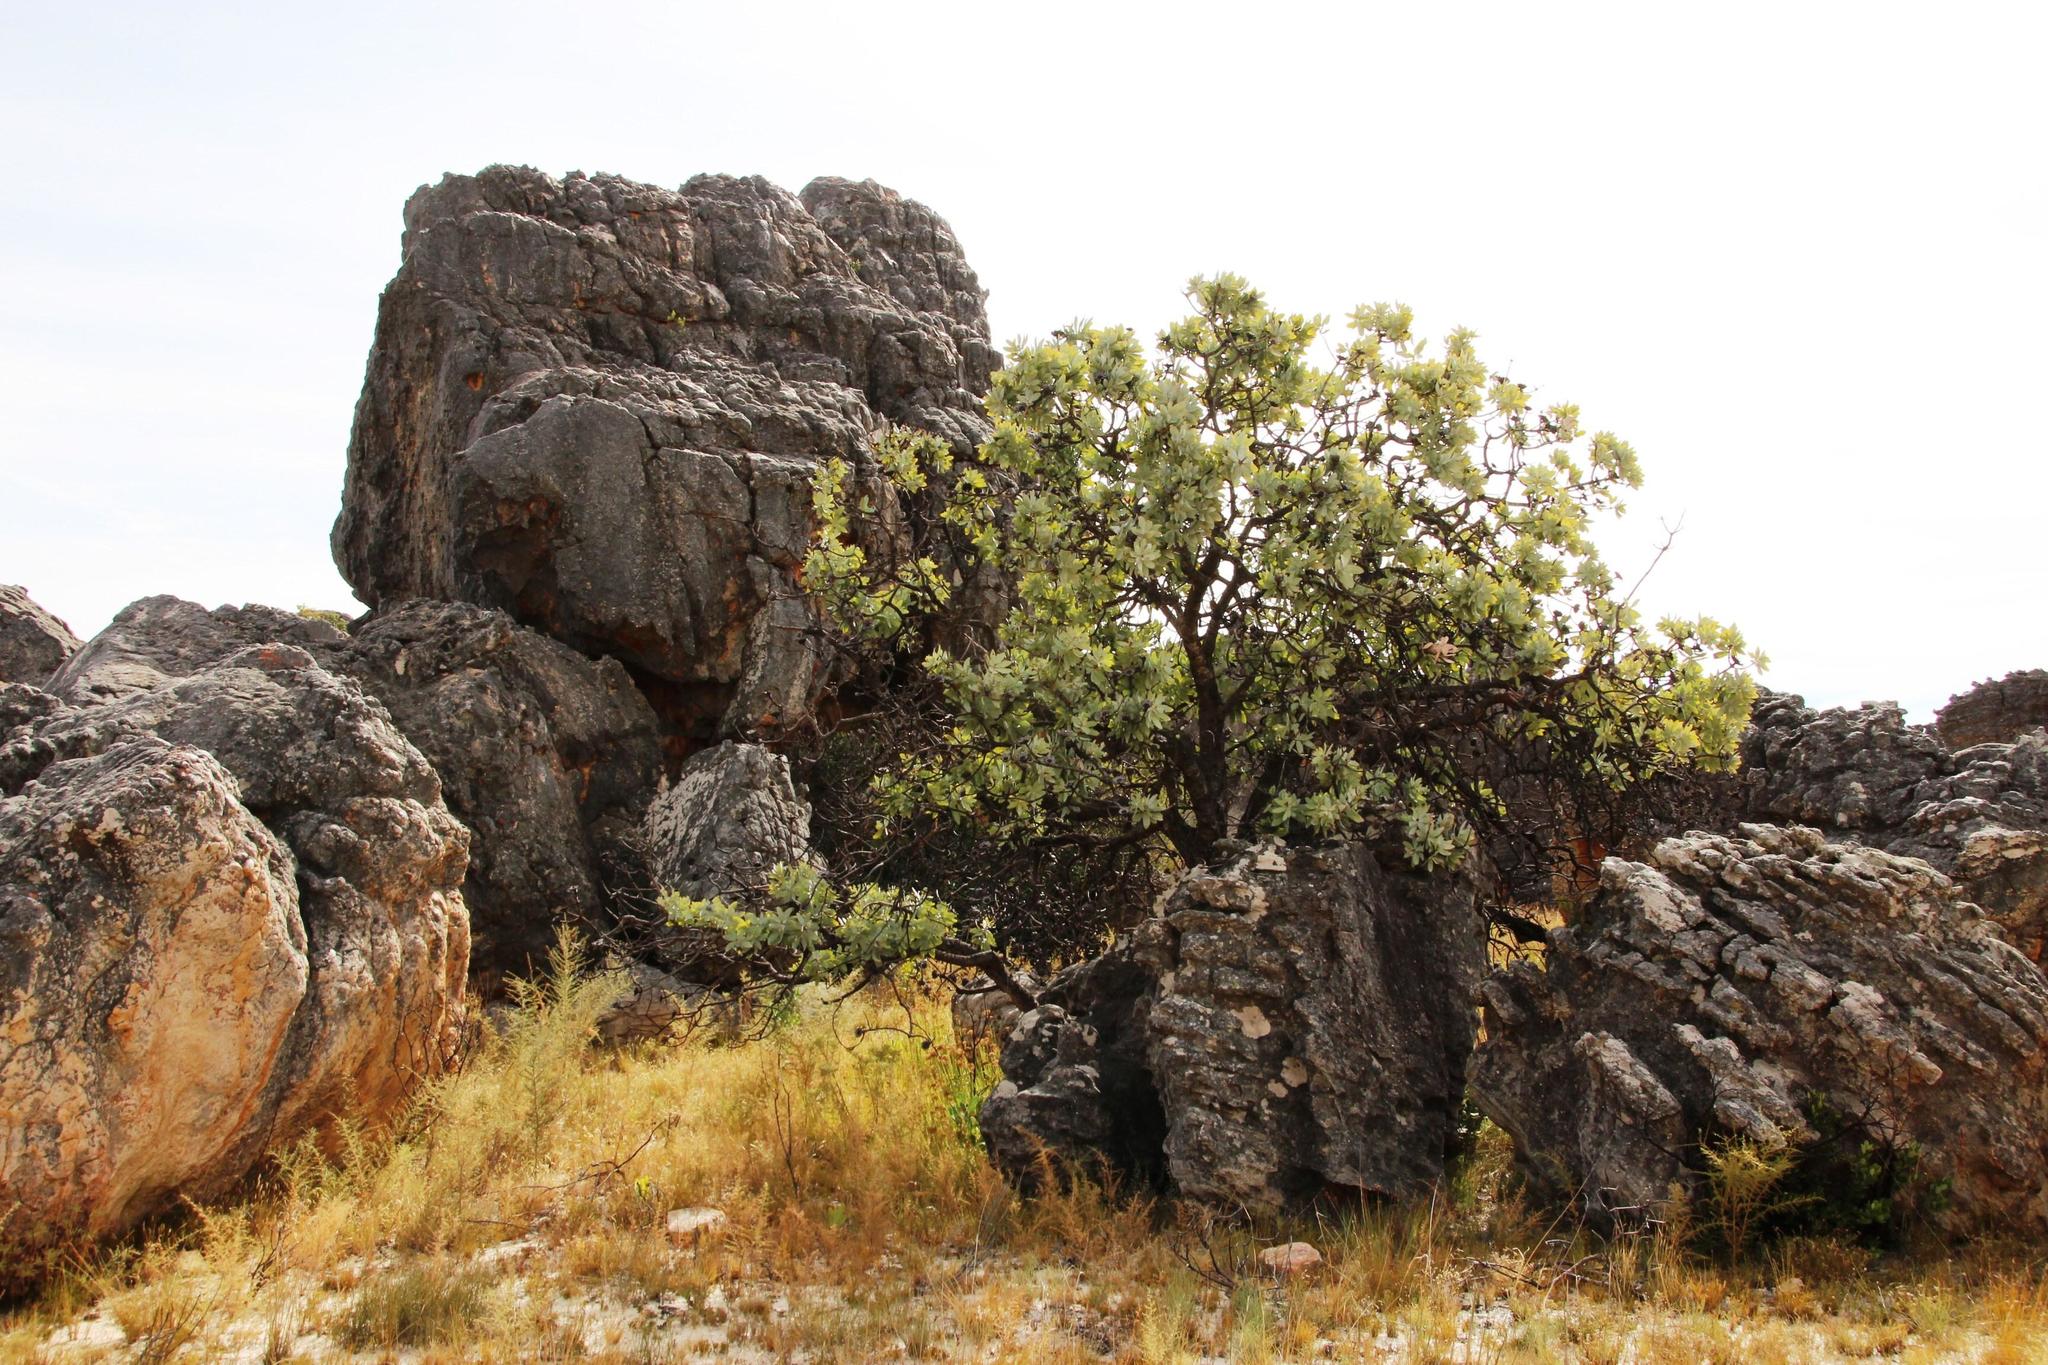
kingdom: Plantae
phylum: Tracheophyta
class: Magnoliopsida
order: Proteales
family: Proteaceae
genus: Protea
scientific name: Protea nitida
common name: Tree protea
